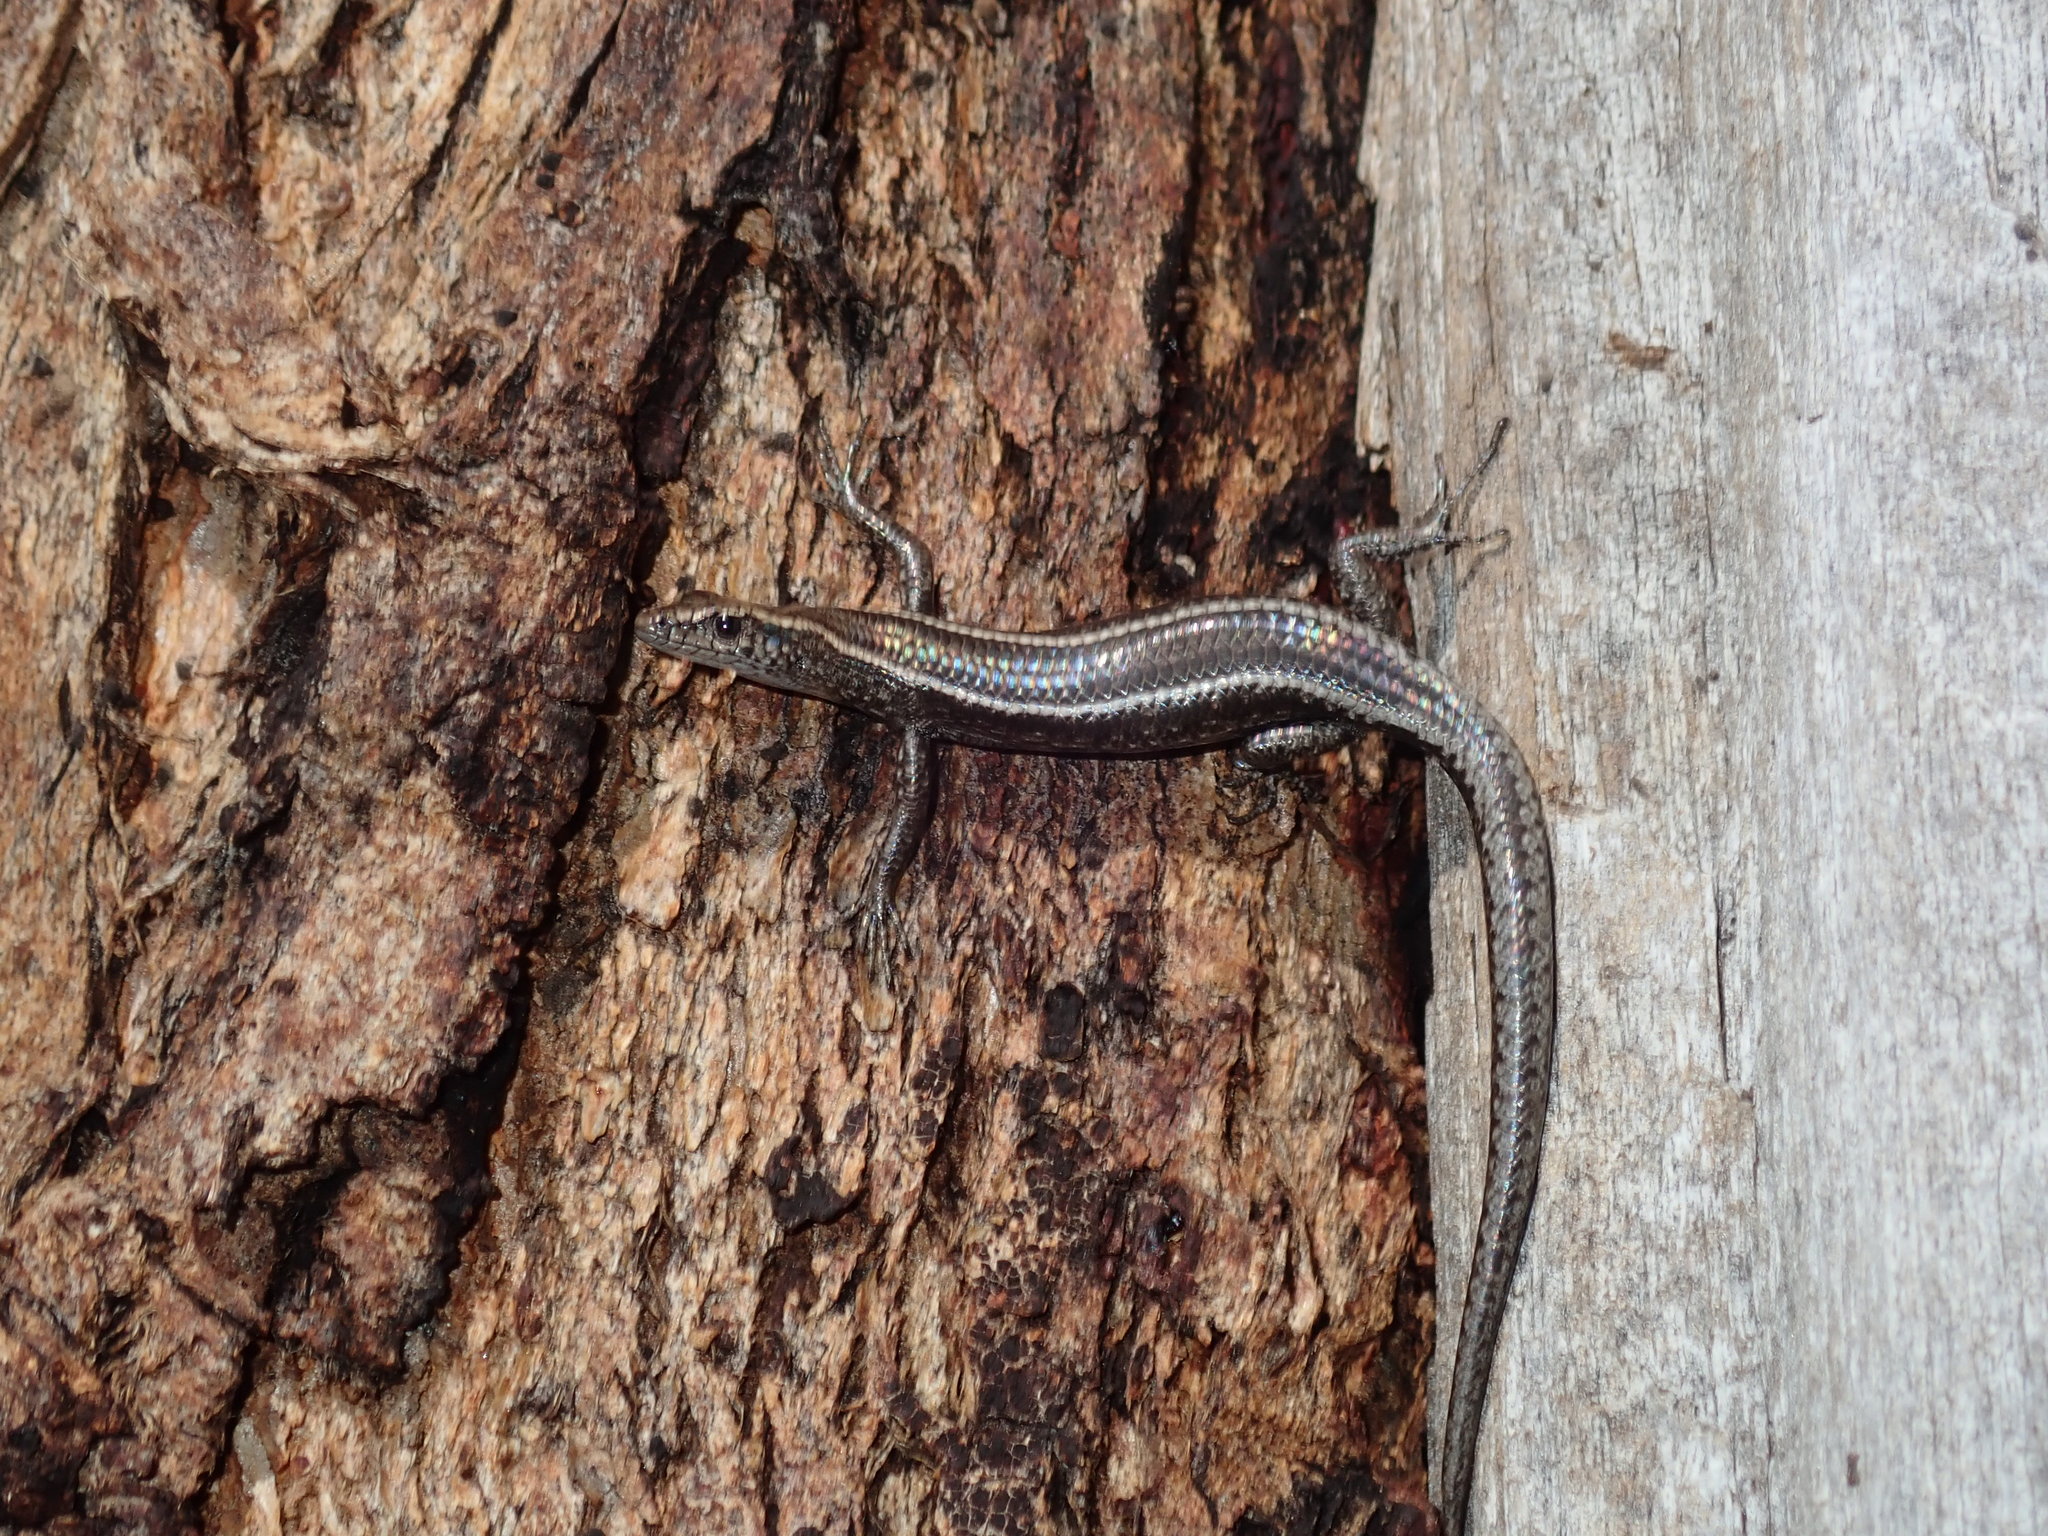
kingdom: Animalia
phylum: Chordata
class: Squamata
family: Scincidae
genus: Cryptoblepharus
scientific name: Cryptoblepharus pulcher
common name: Elegant snake-eyed skink
